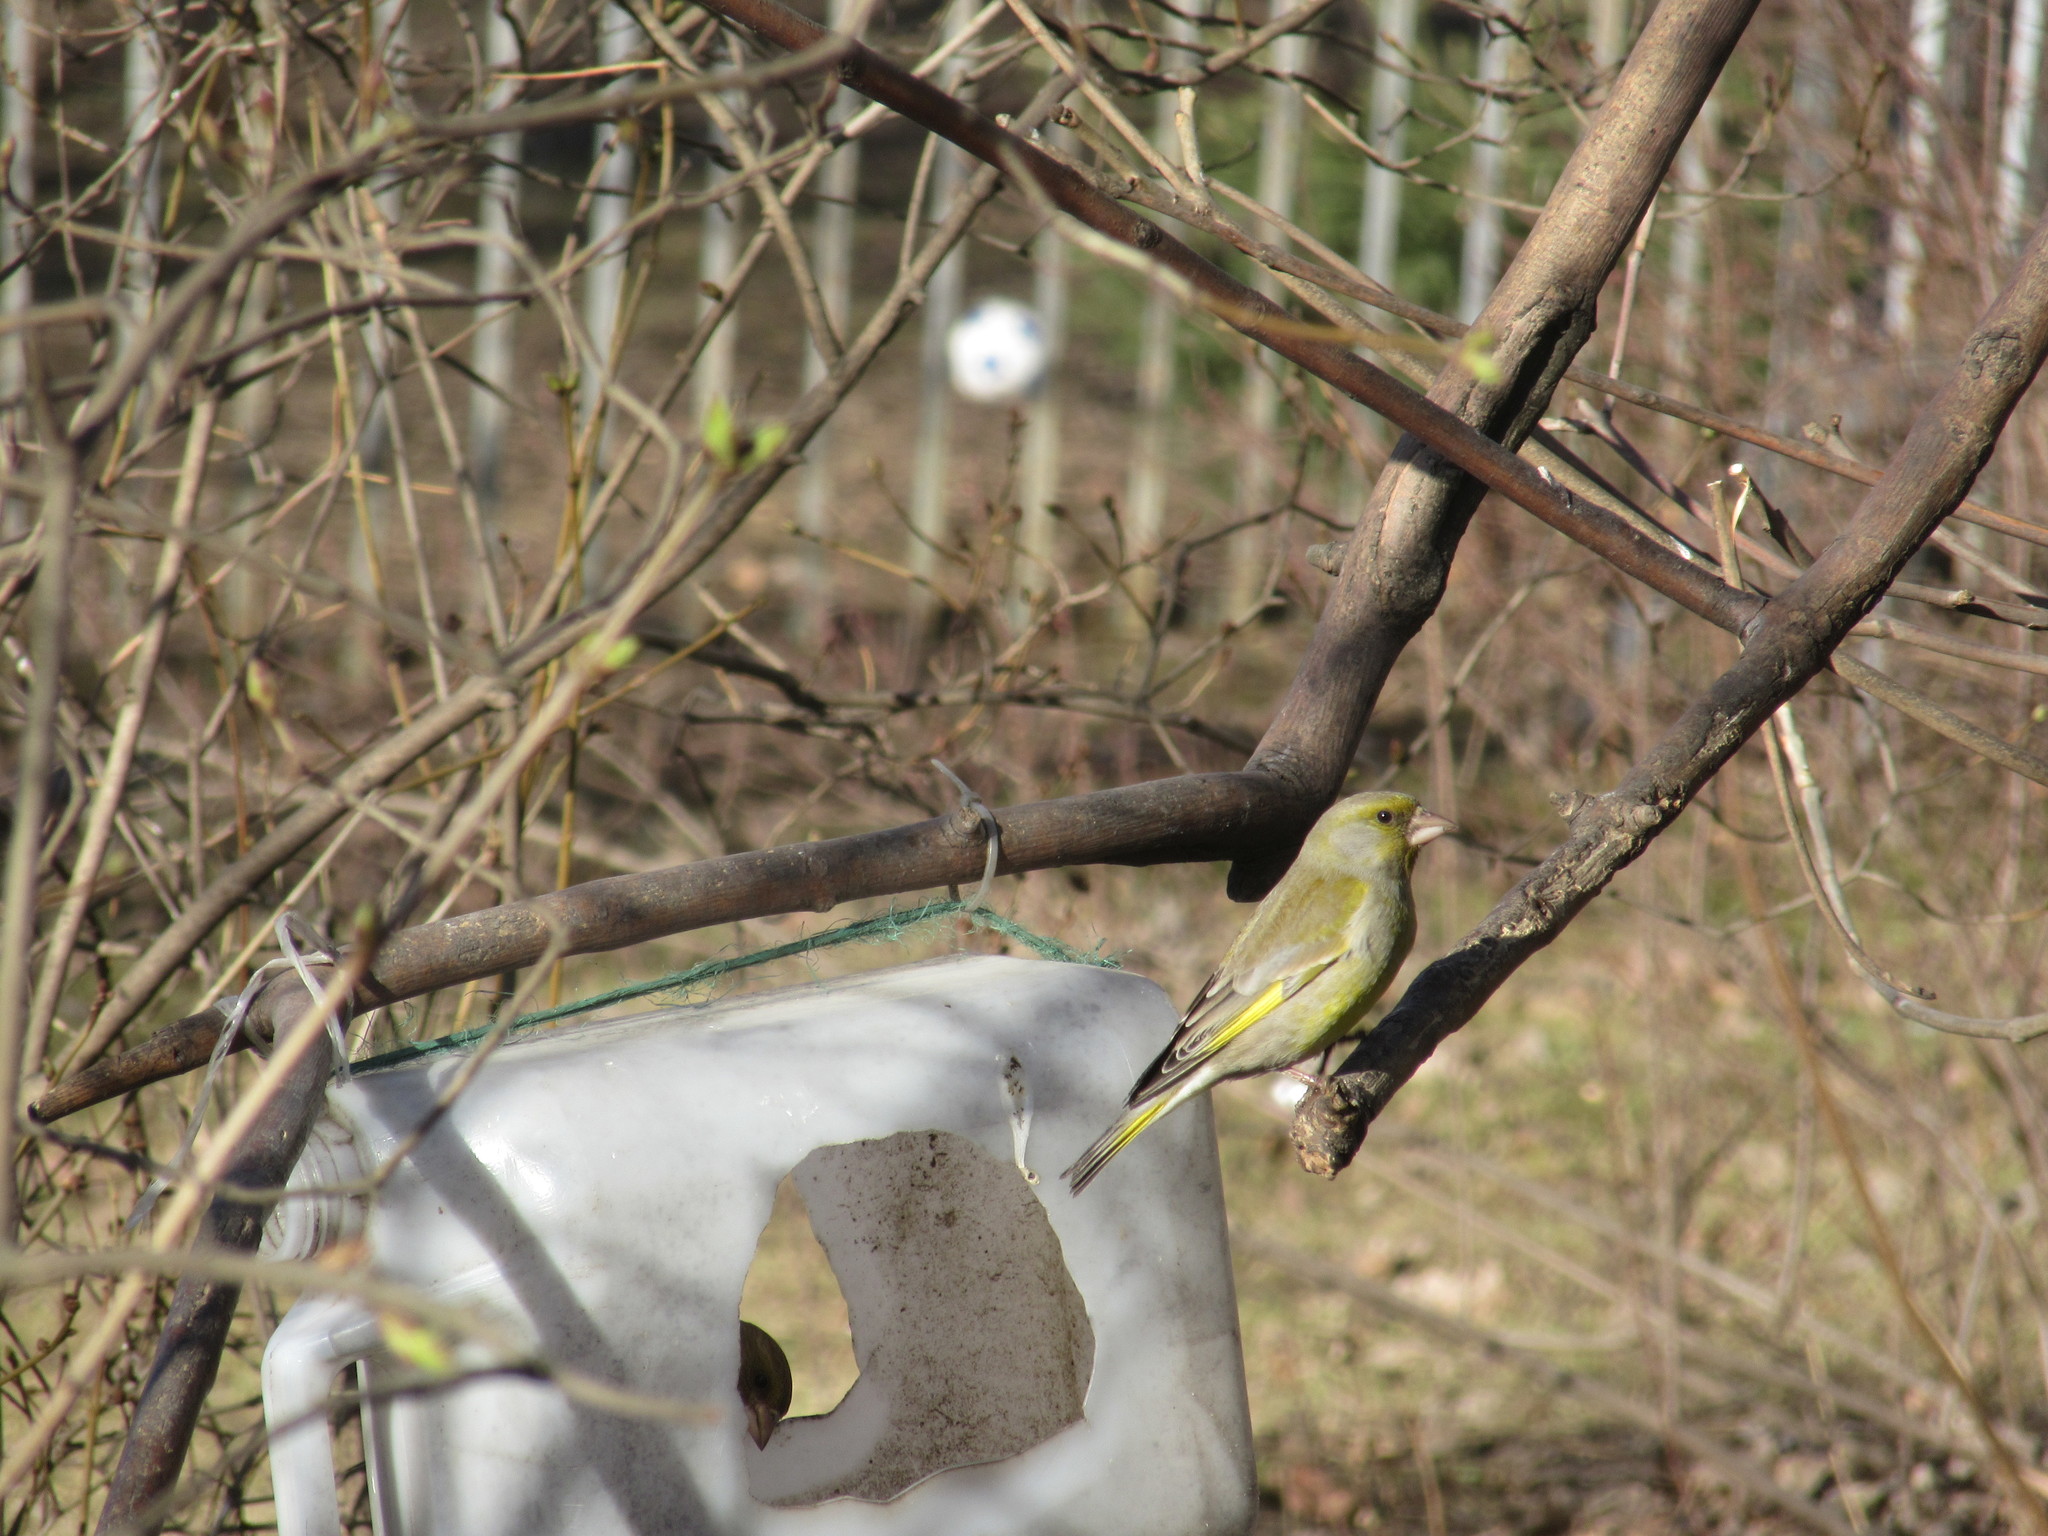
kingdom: Plantae
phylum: Tracheophyta
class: Liliopsida
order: Poales
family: Poaceae
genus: Chloris
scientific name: Chloris chloris
